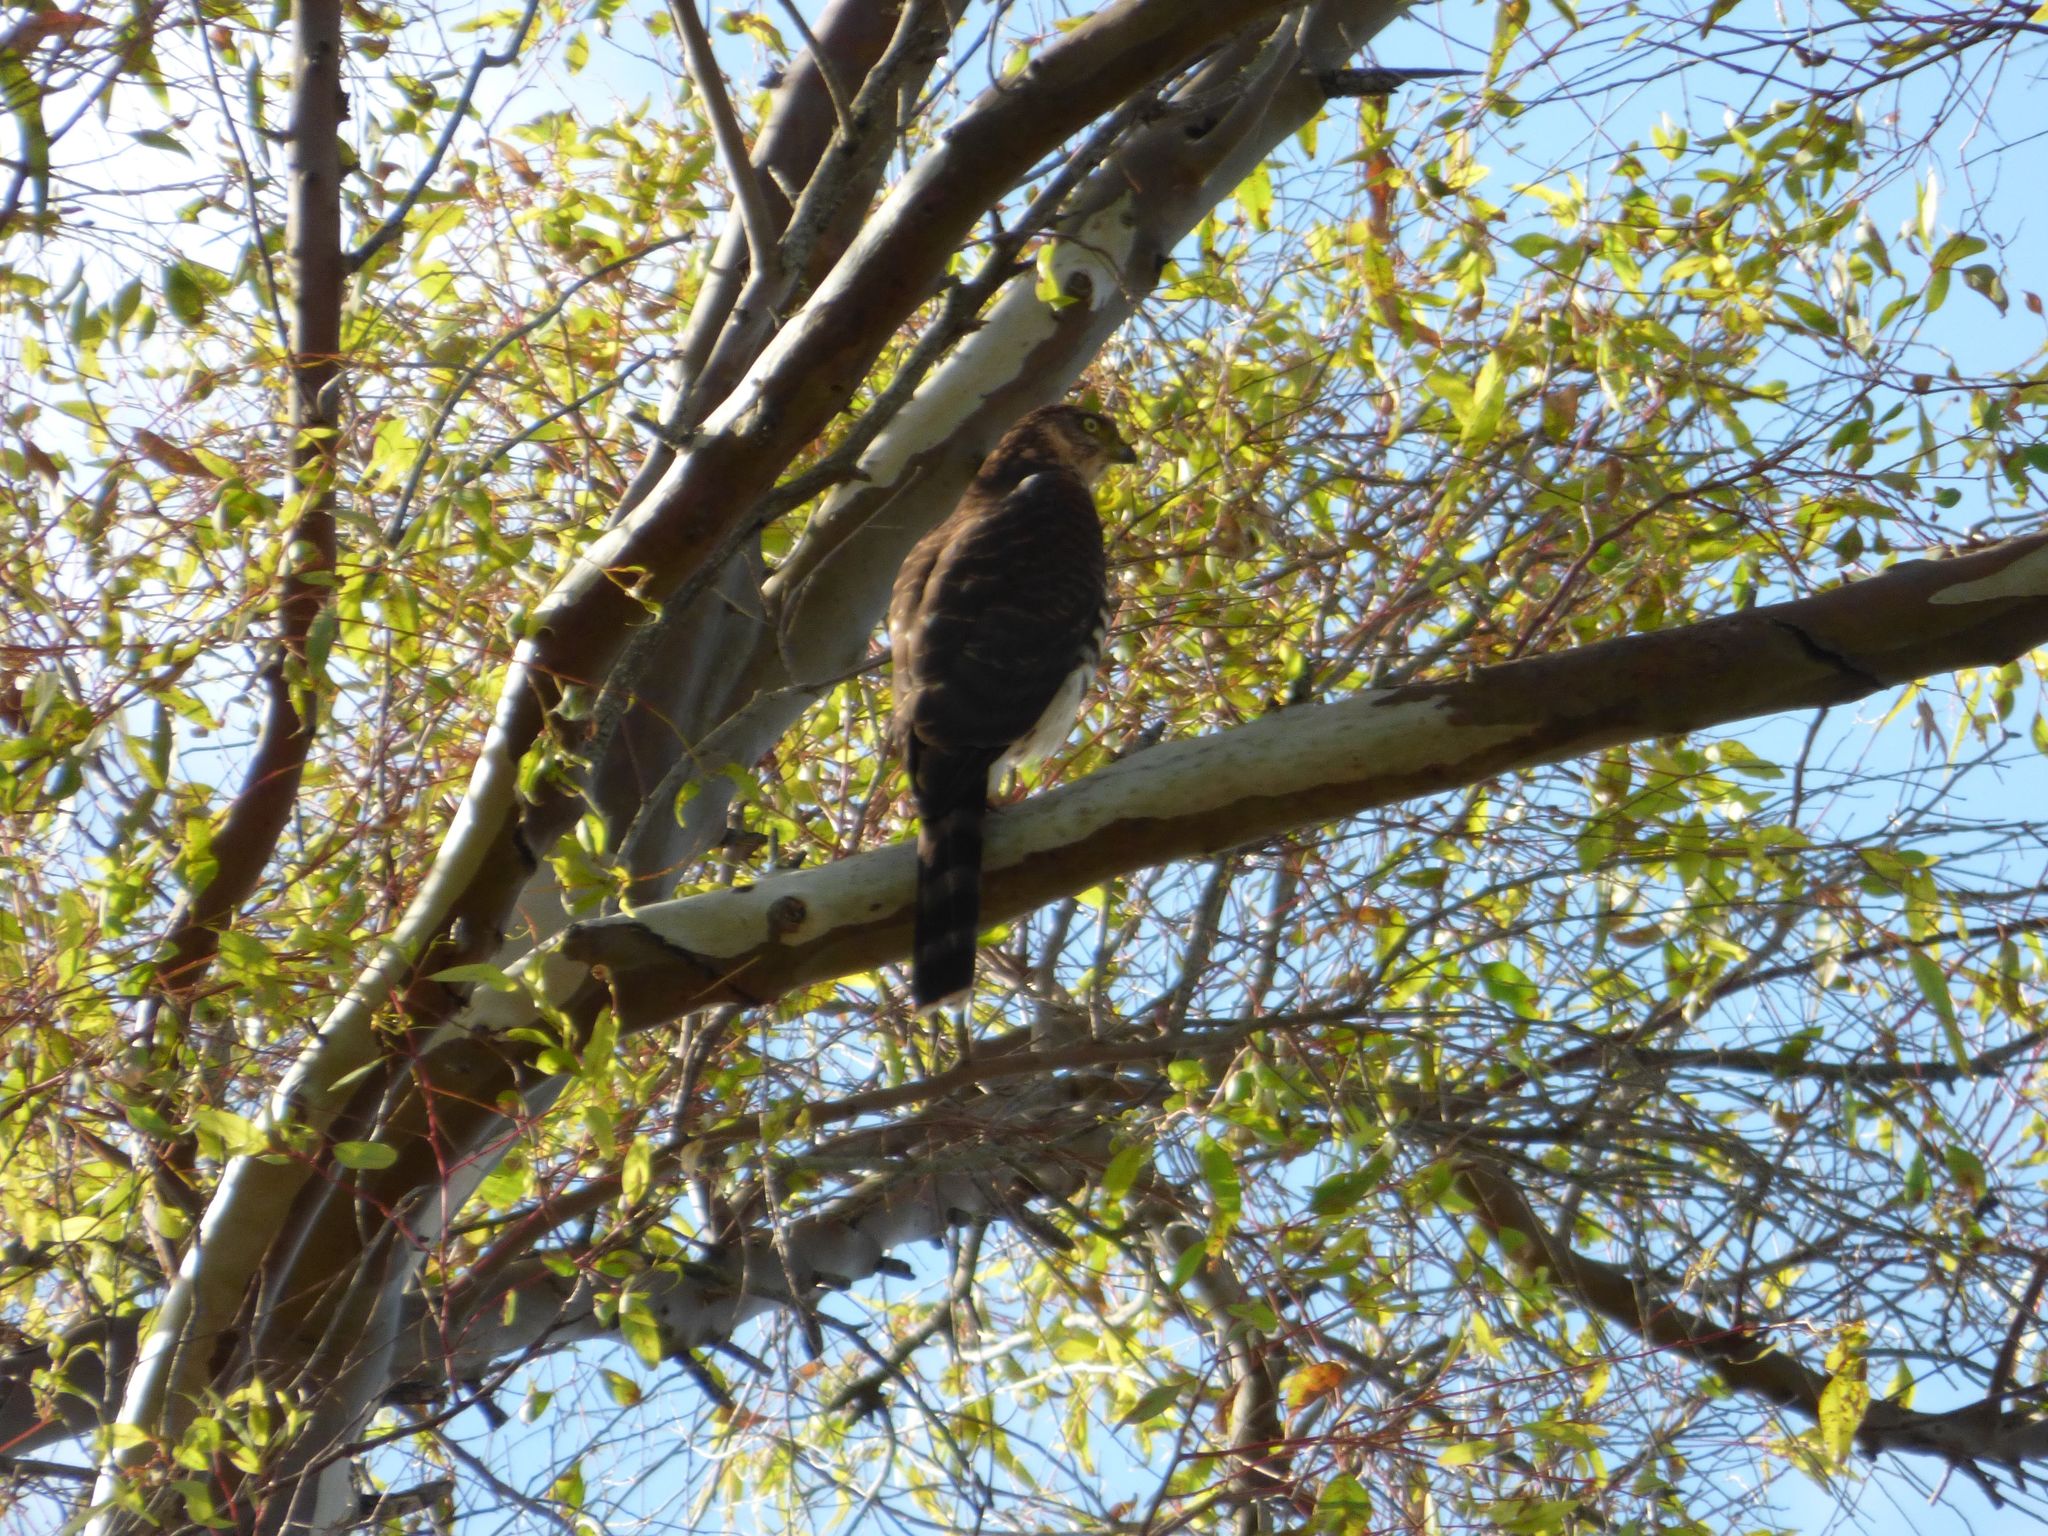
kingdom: Animalia
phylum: Chordata
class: Aves
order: Accipitriformes
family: Accipitridae
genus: Accipiter
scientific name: Accipiter bicolor
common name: Bicolored hawk
